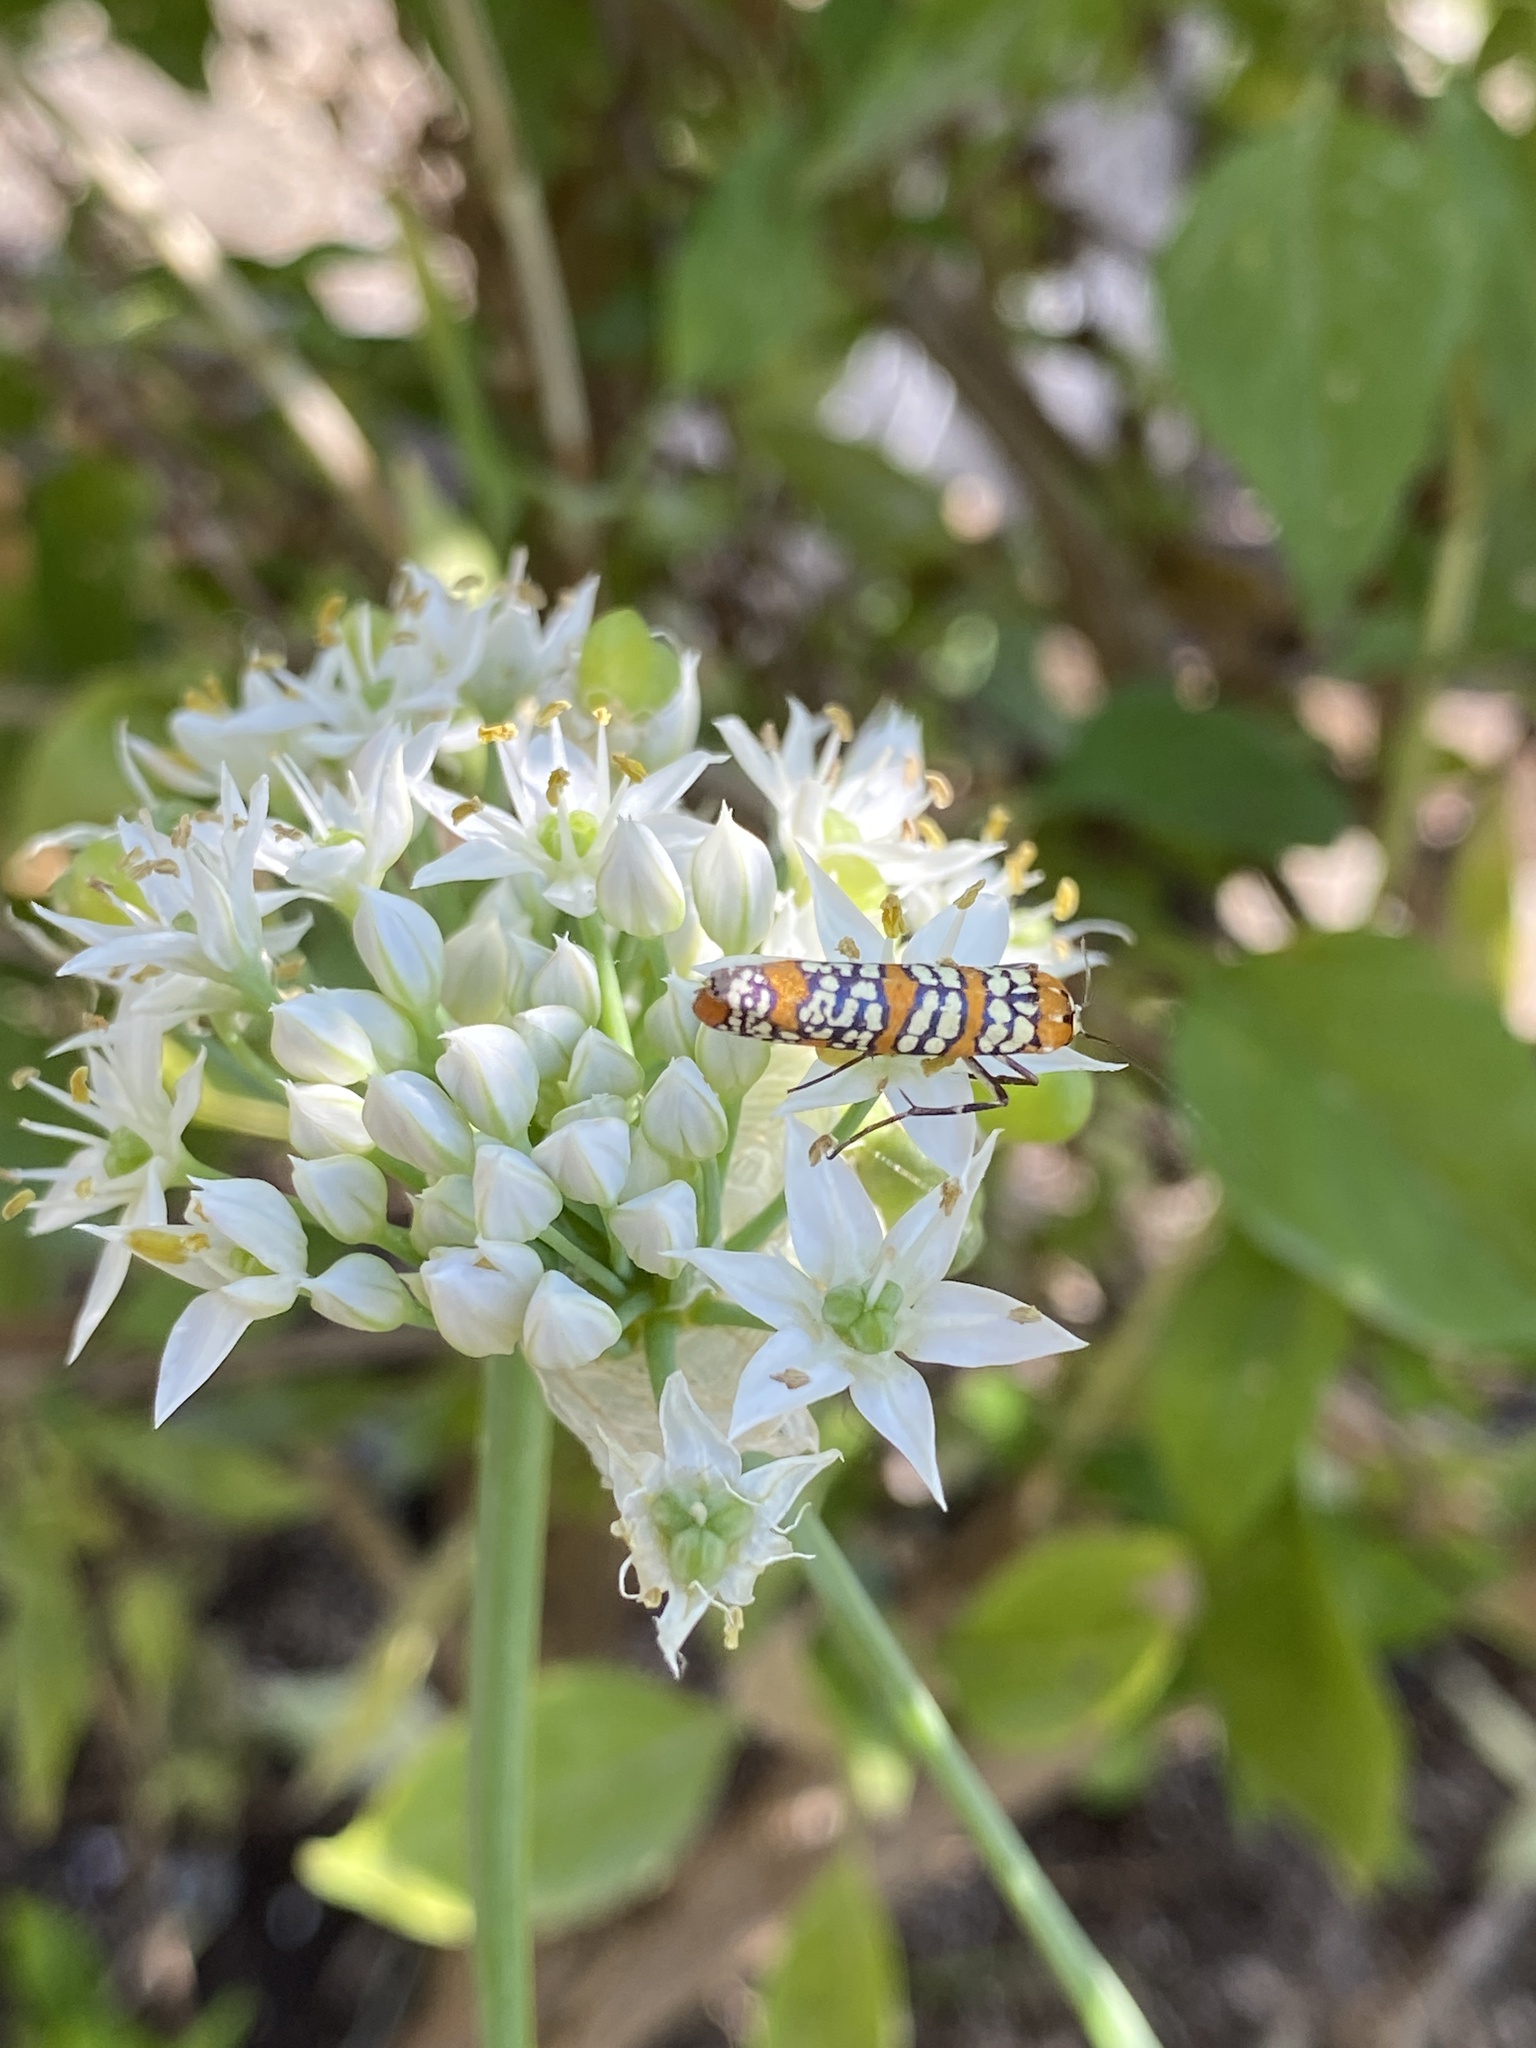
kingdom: Animalia
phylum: Arthropoda
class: Insecta
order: Lepidoptera
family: Attevidae
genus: Atteva
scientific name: Atteva punctella
